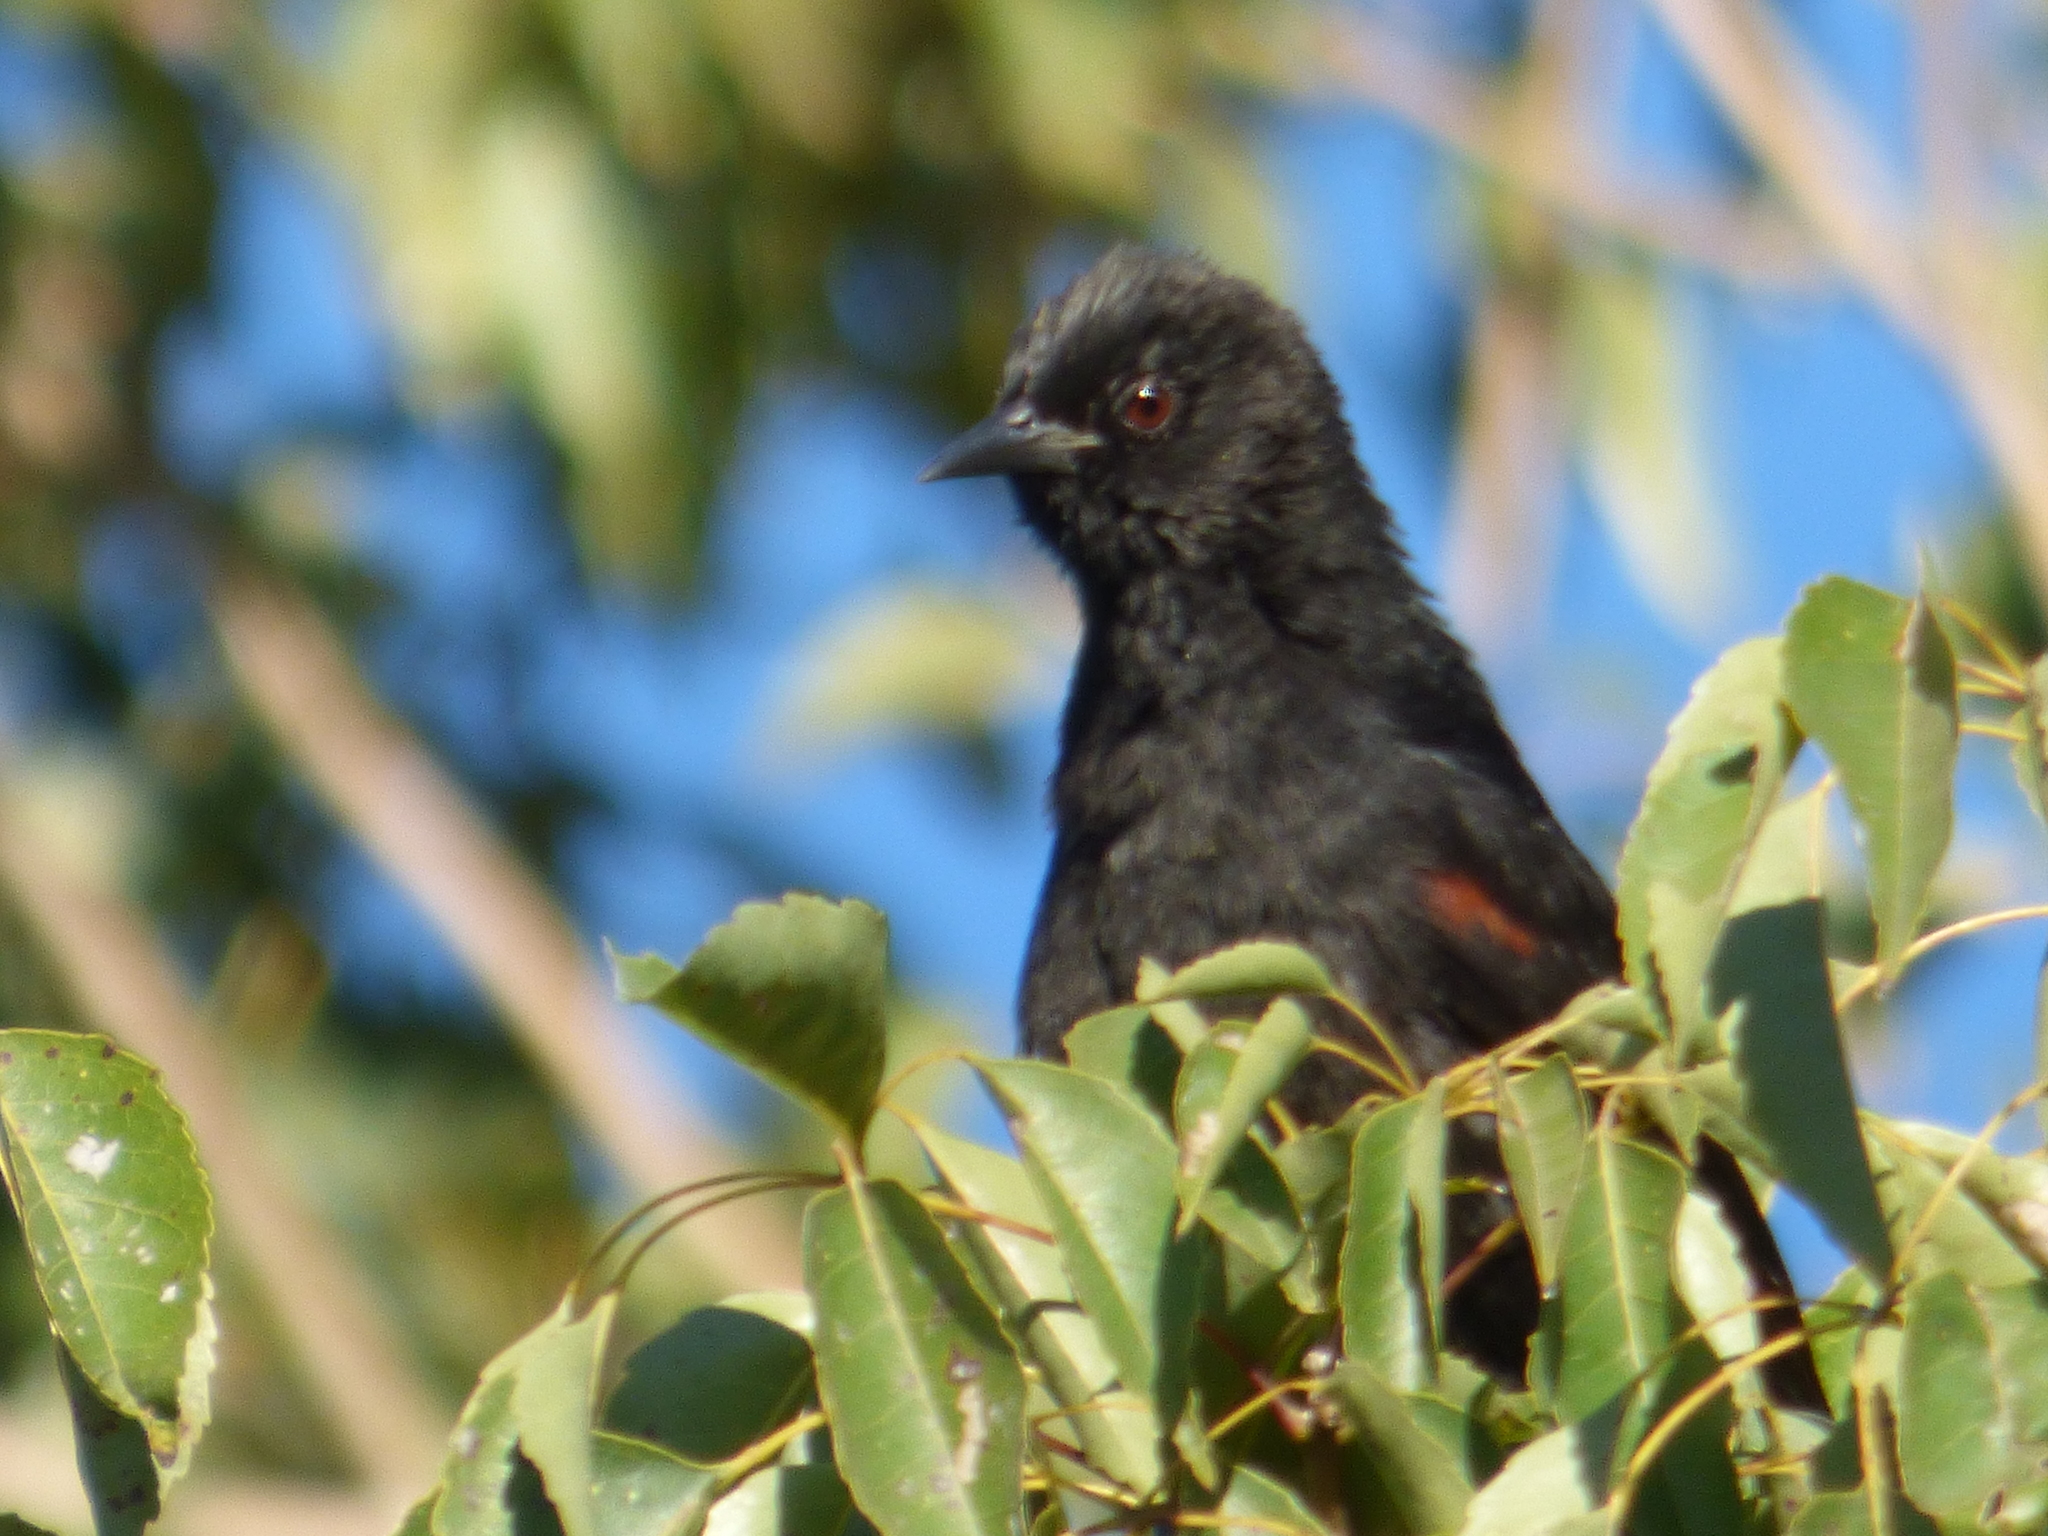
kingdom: Animalia
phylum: Chordata
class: Aves
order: Passeriformes
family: Icteridae
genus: Icterus
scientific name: Icterus cayanensis
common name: Epaulet oriole
